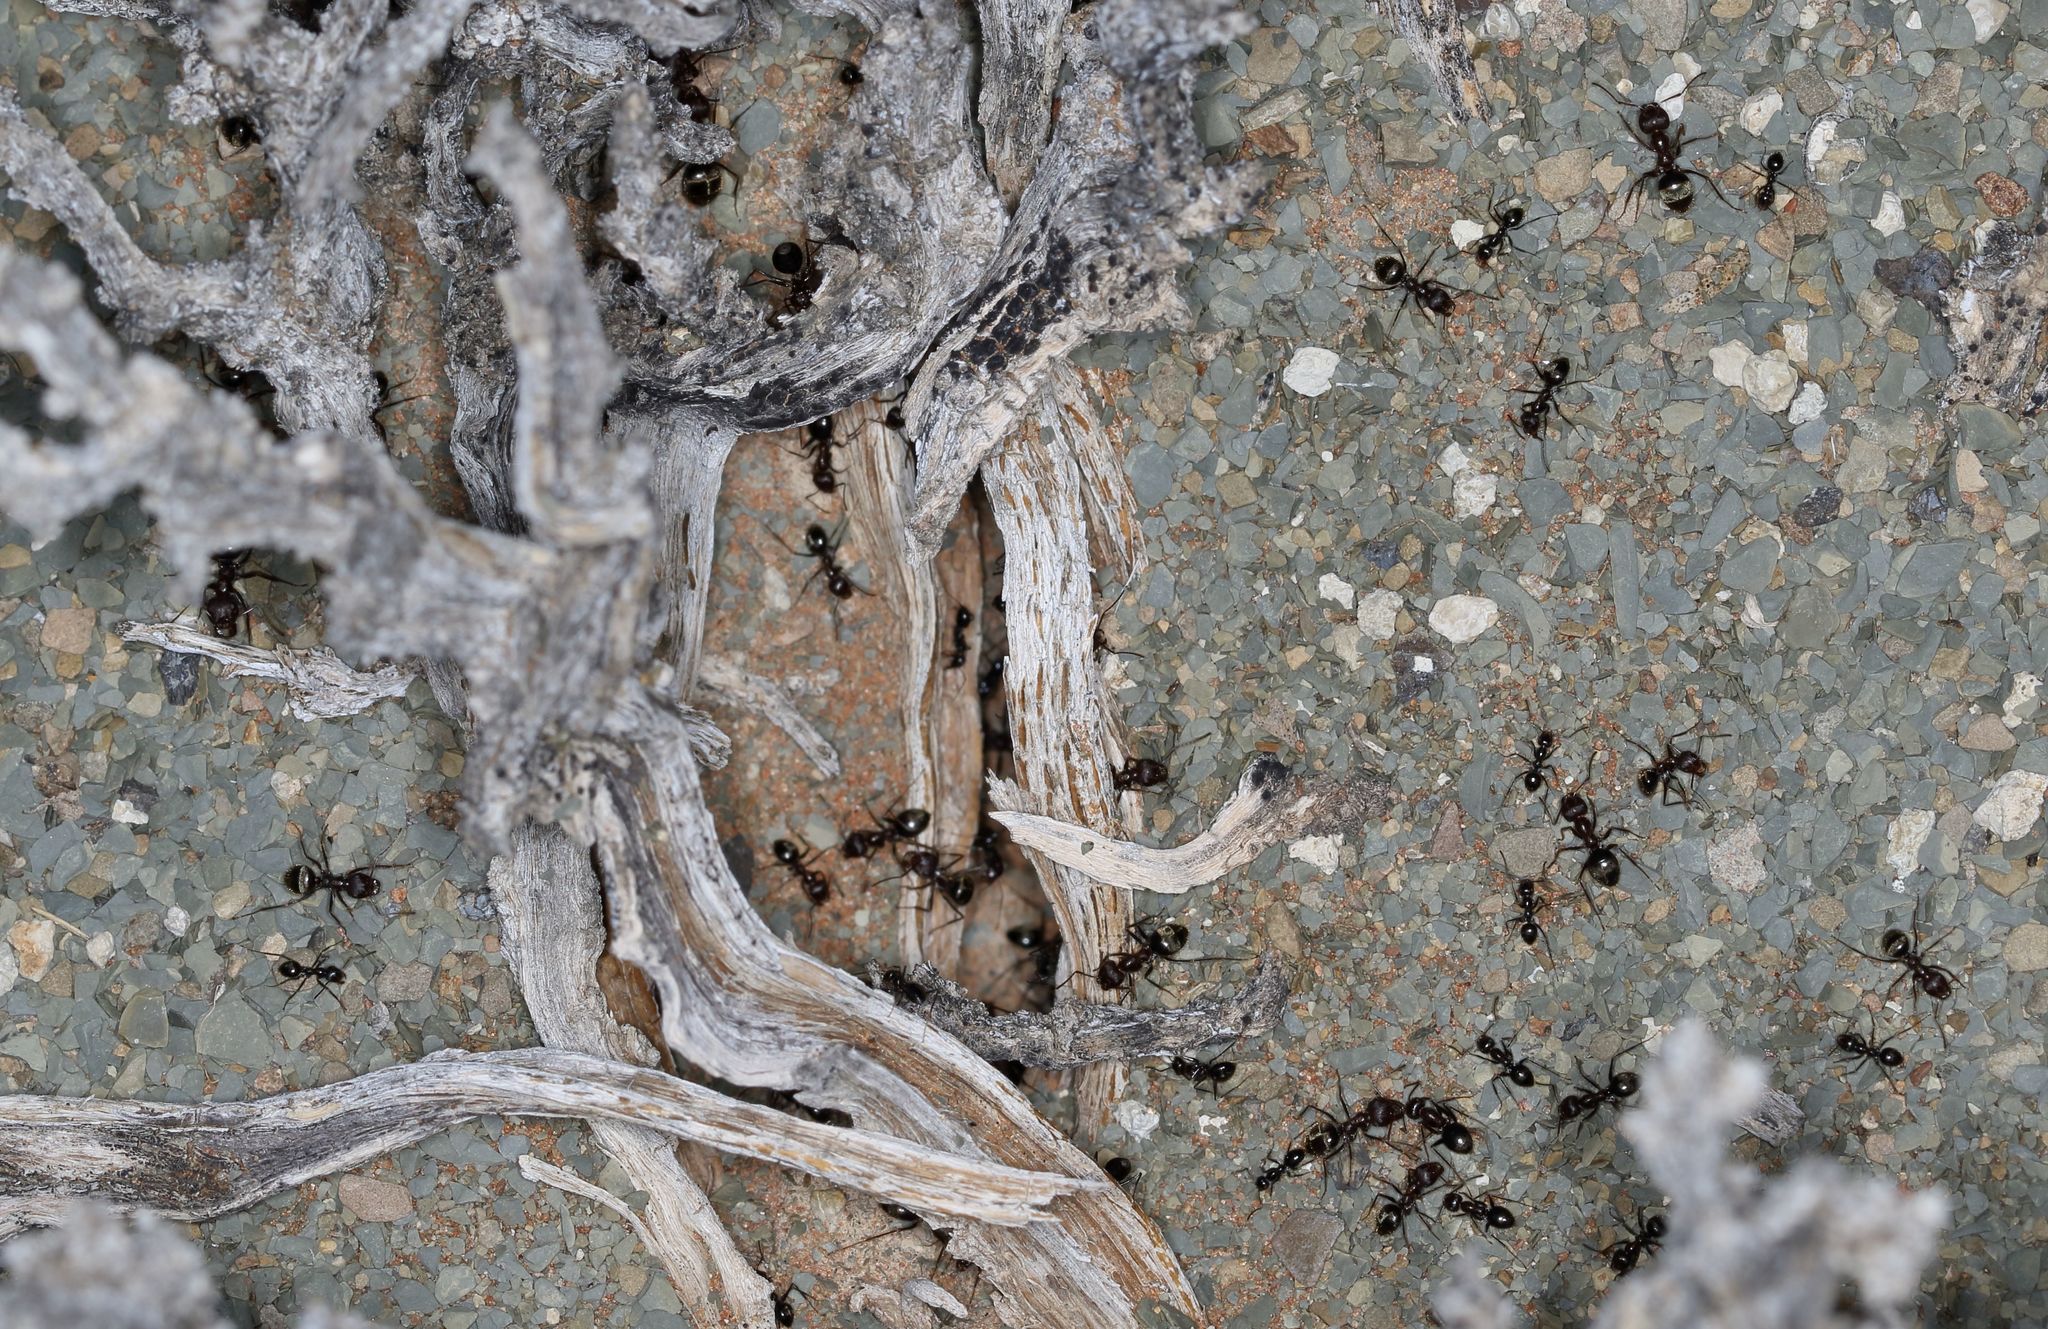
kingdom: Animalia
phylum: Arthropoda
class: Insecta
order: Hymenoptera
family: Formicidae
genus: Anoplolepis
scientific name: Anoplolepis steingroeveri
